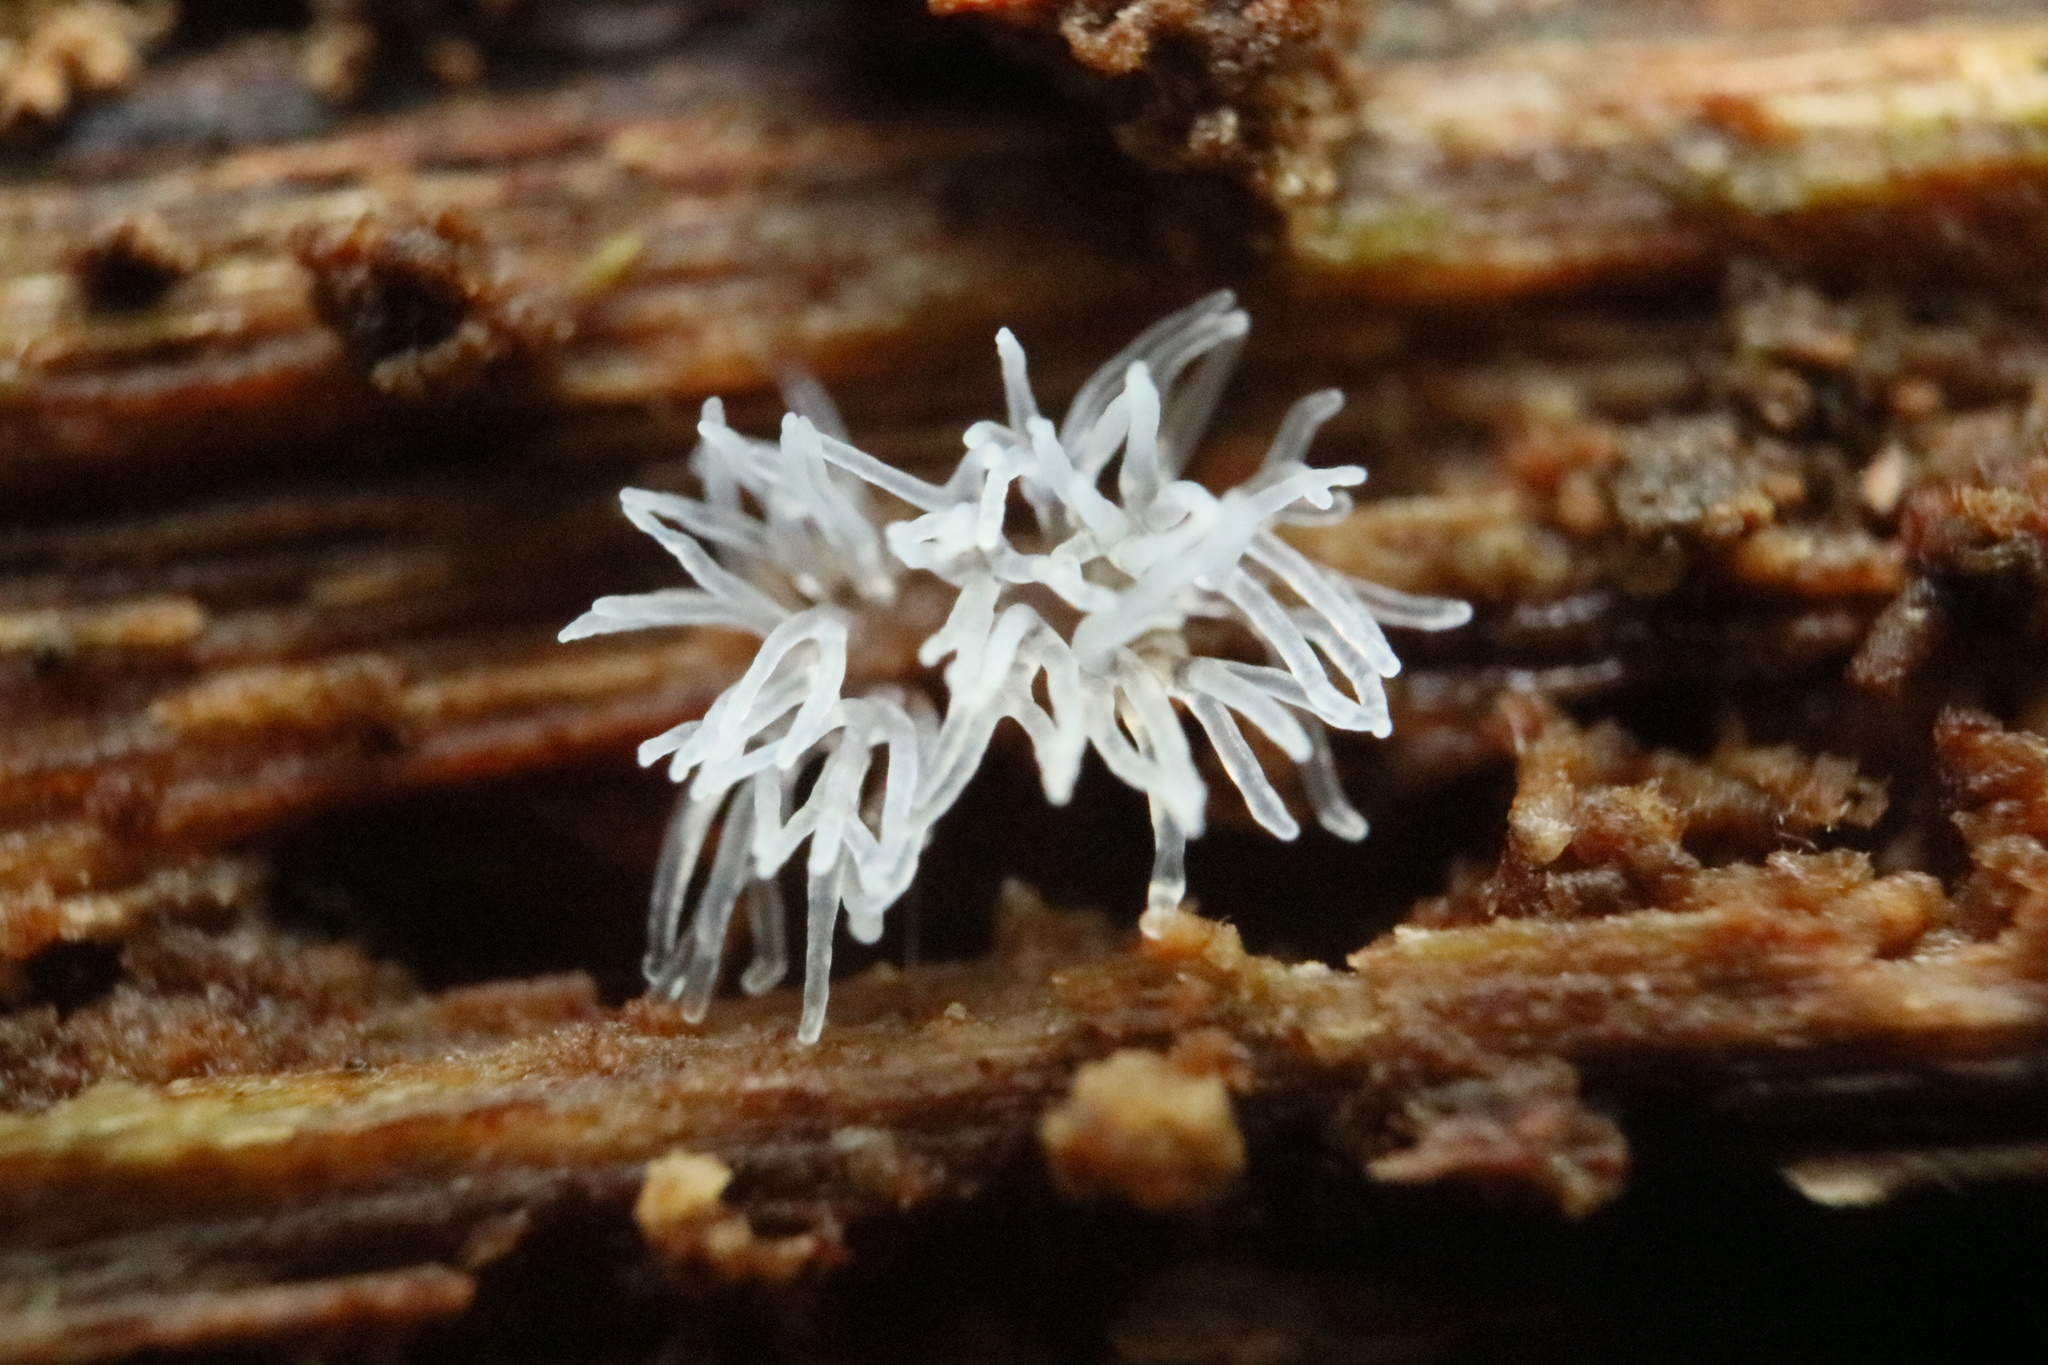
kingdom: Protozoa
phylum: Mycetozoa
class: Protosteliomycetes
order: Ceratiomyxales
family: Ceratiomyxaceae
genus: Ceratiomyxa
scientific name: Ceratiomyxa fruticulosa
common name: Honeycomb coral slime mold
